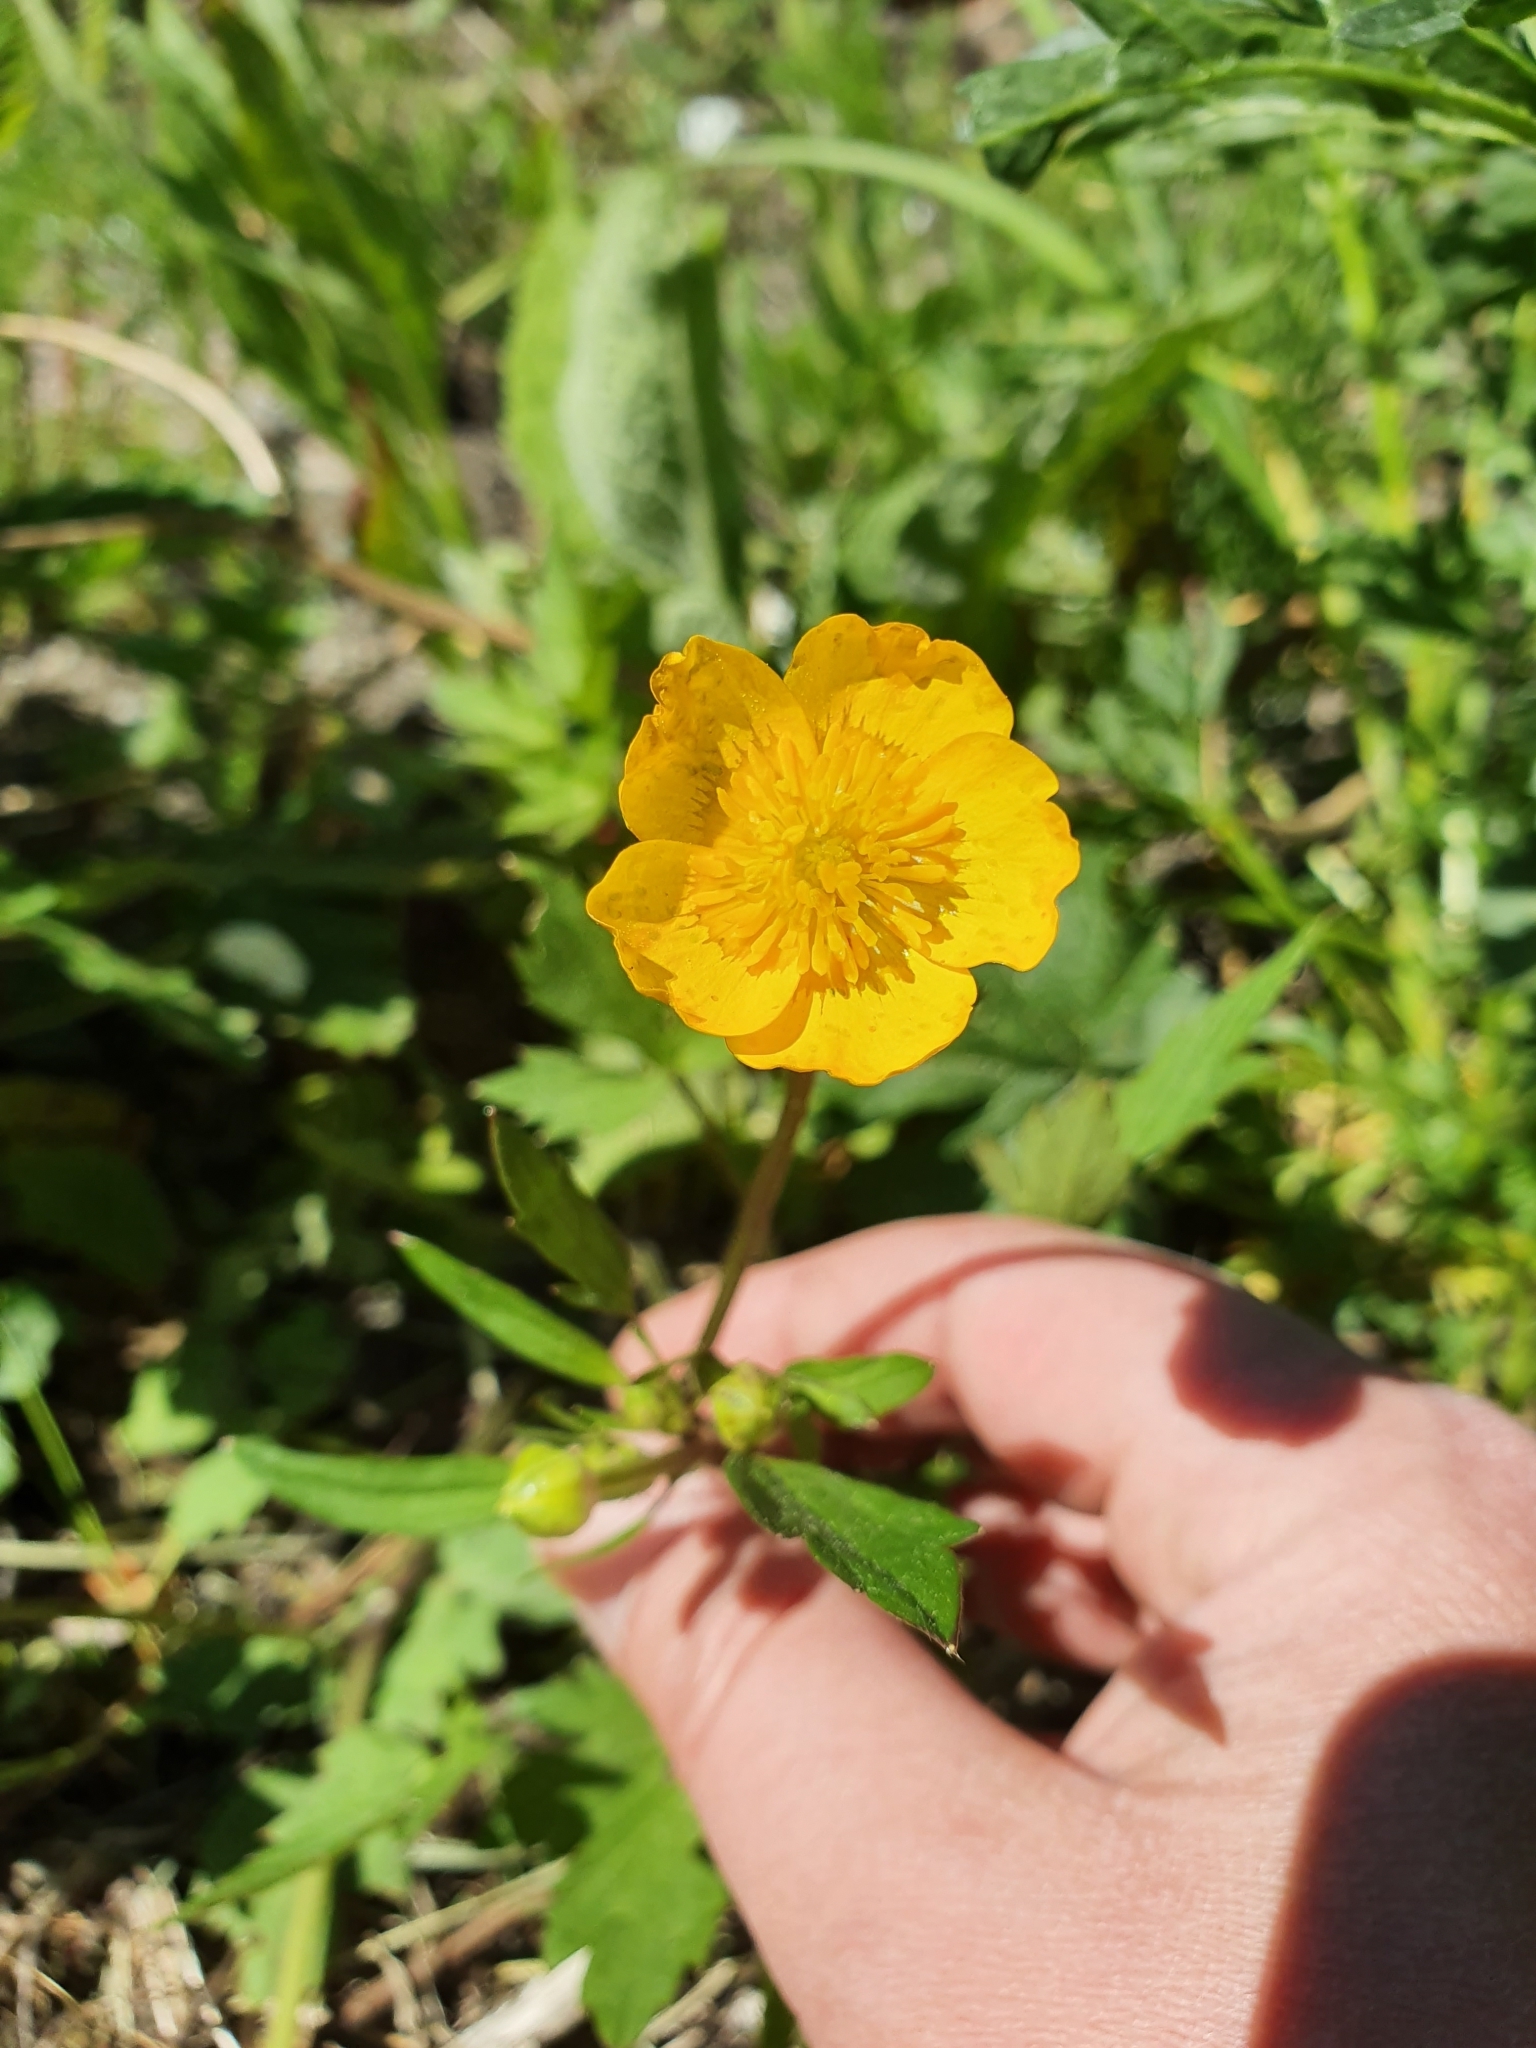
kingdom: Plantae
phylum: Tracheophyta
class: Magnoliopsida
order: Ranunculales
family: Ranunculaceae
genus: Ranunculus
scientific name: Ranunculus repens
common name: Creeping buttercup
